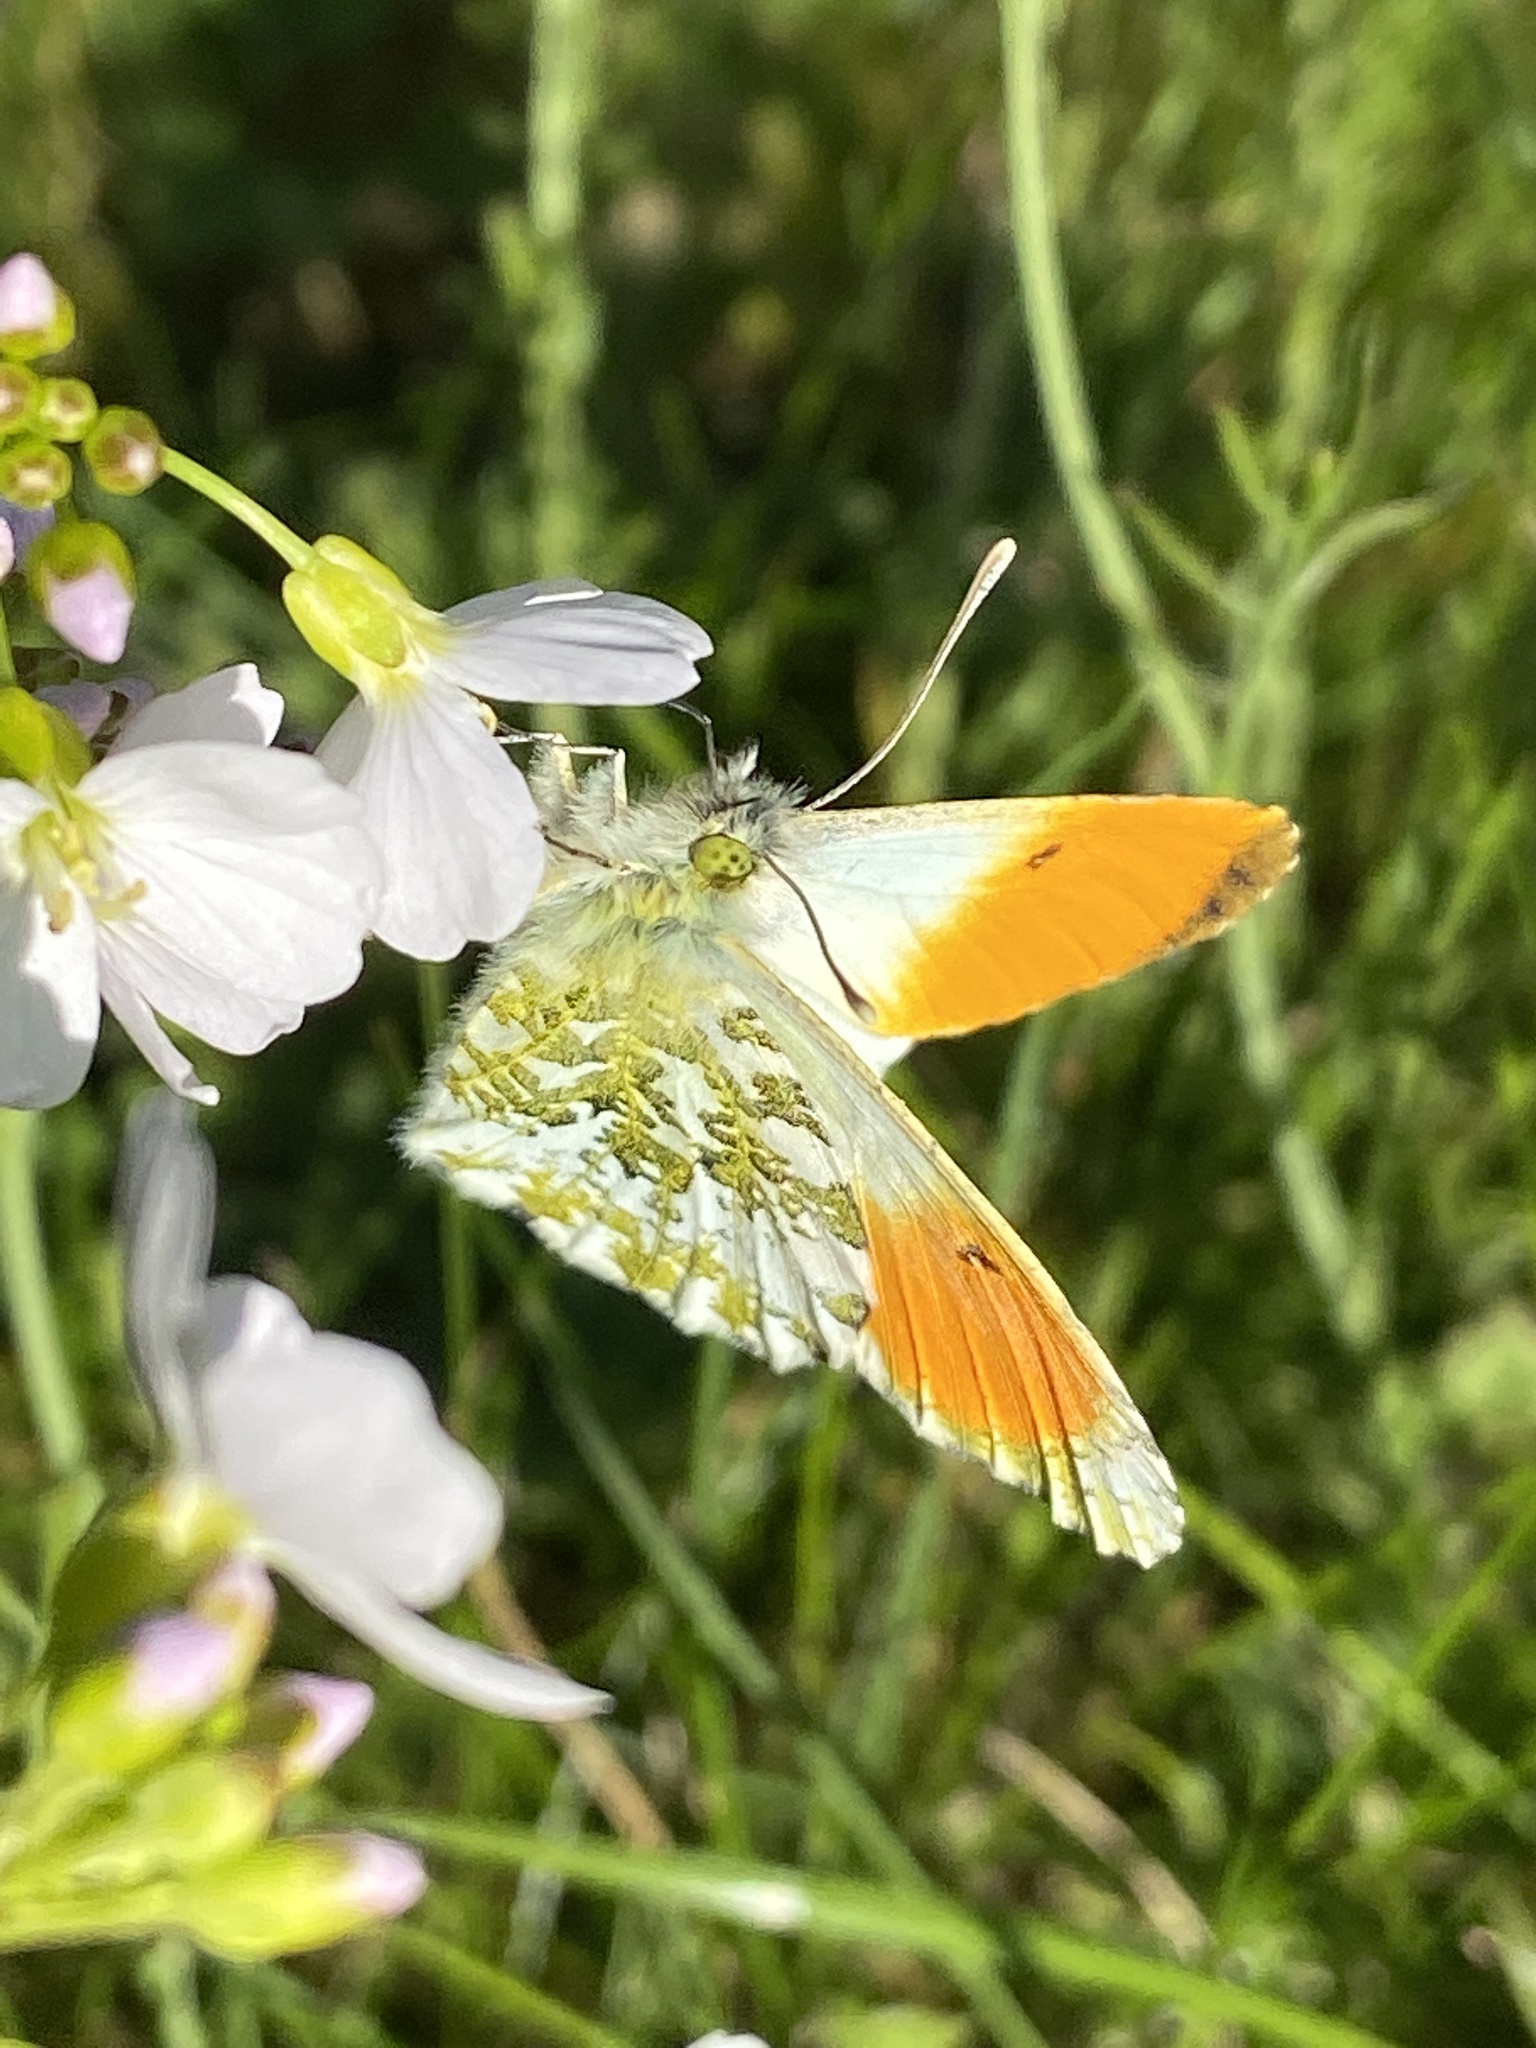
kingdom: Animalia
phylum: Arthropoda
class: Insecta
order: Lepidoptera
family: Pieridae
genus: Anthocharis
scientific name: Anthocharis cardamines
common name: Orange-tip
